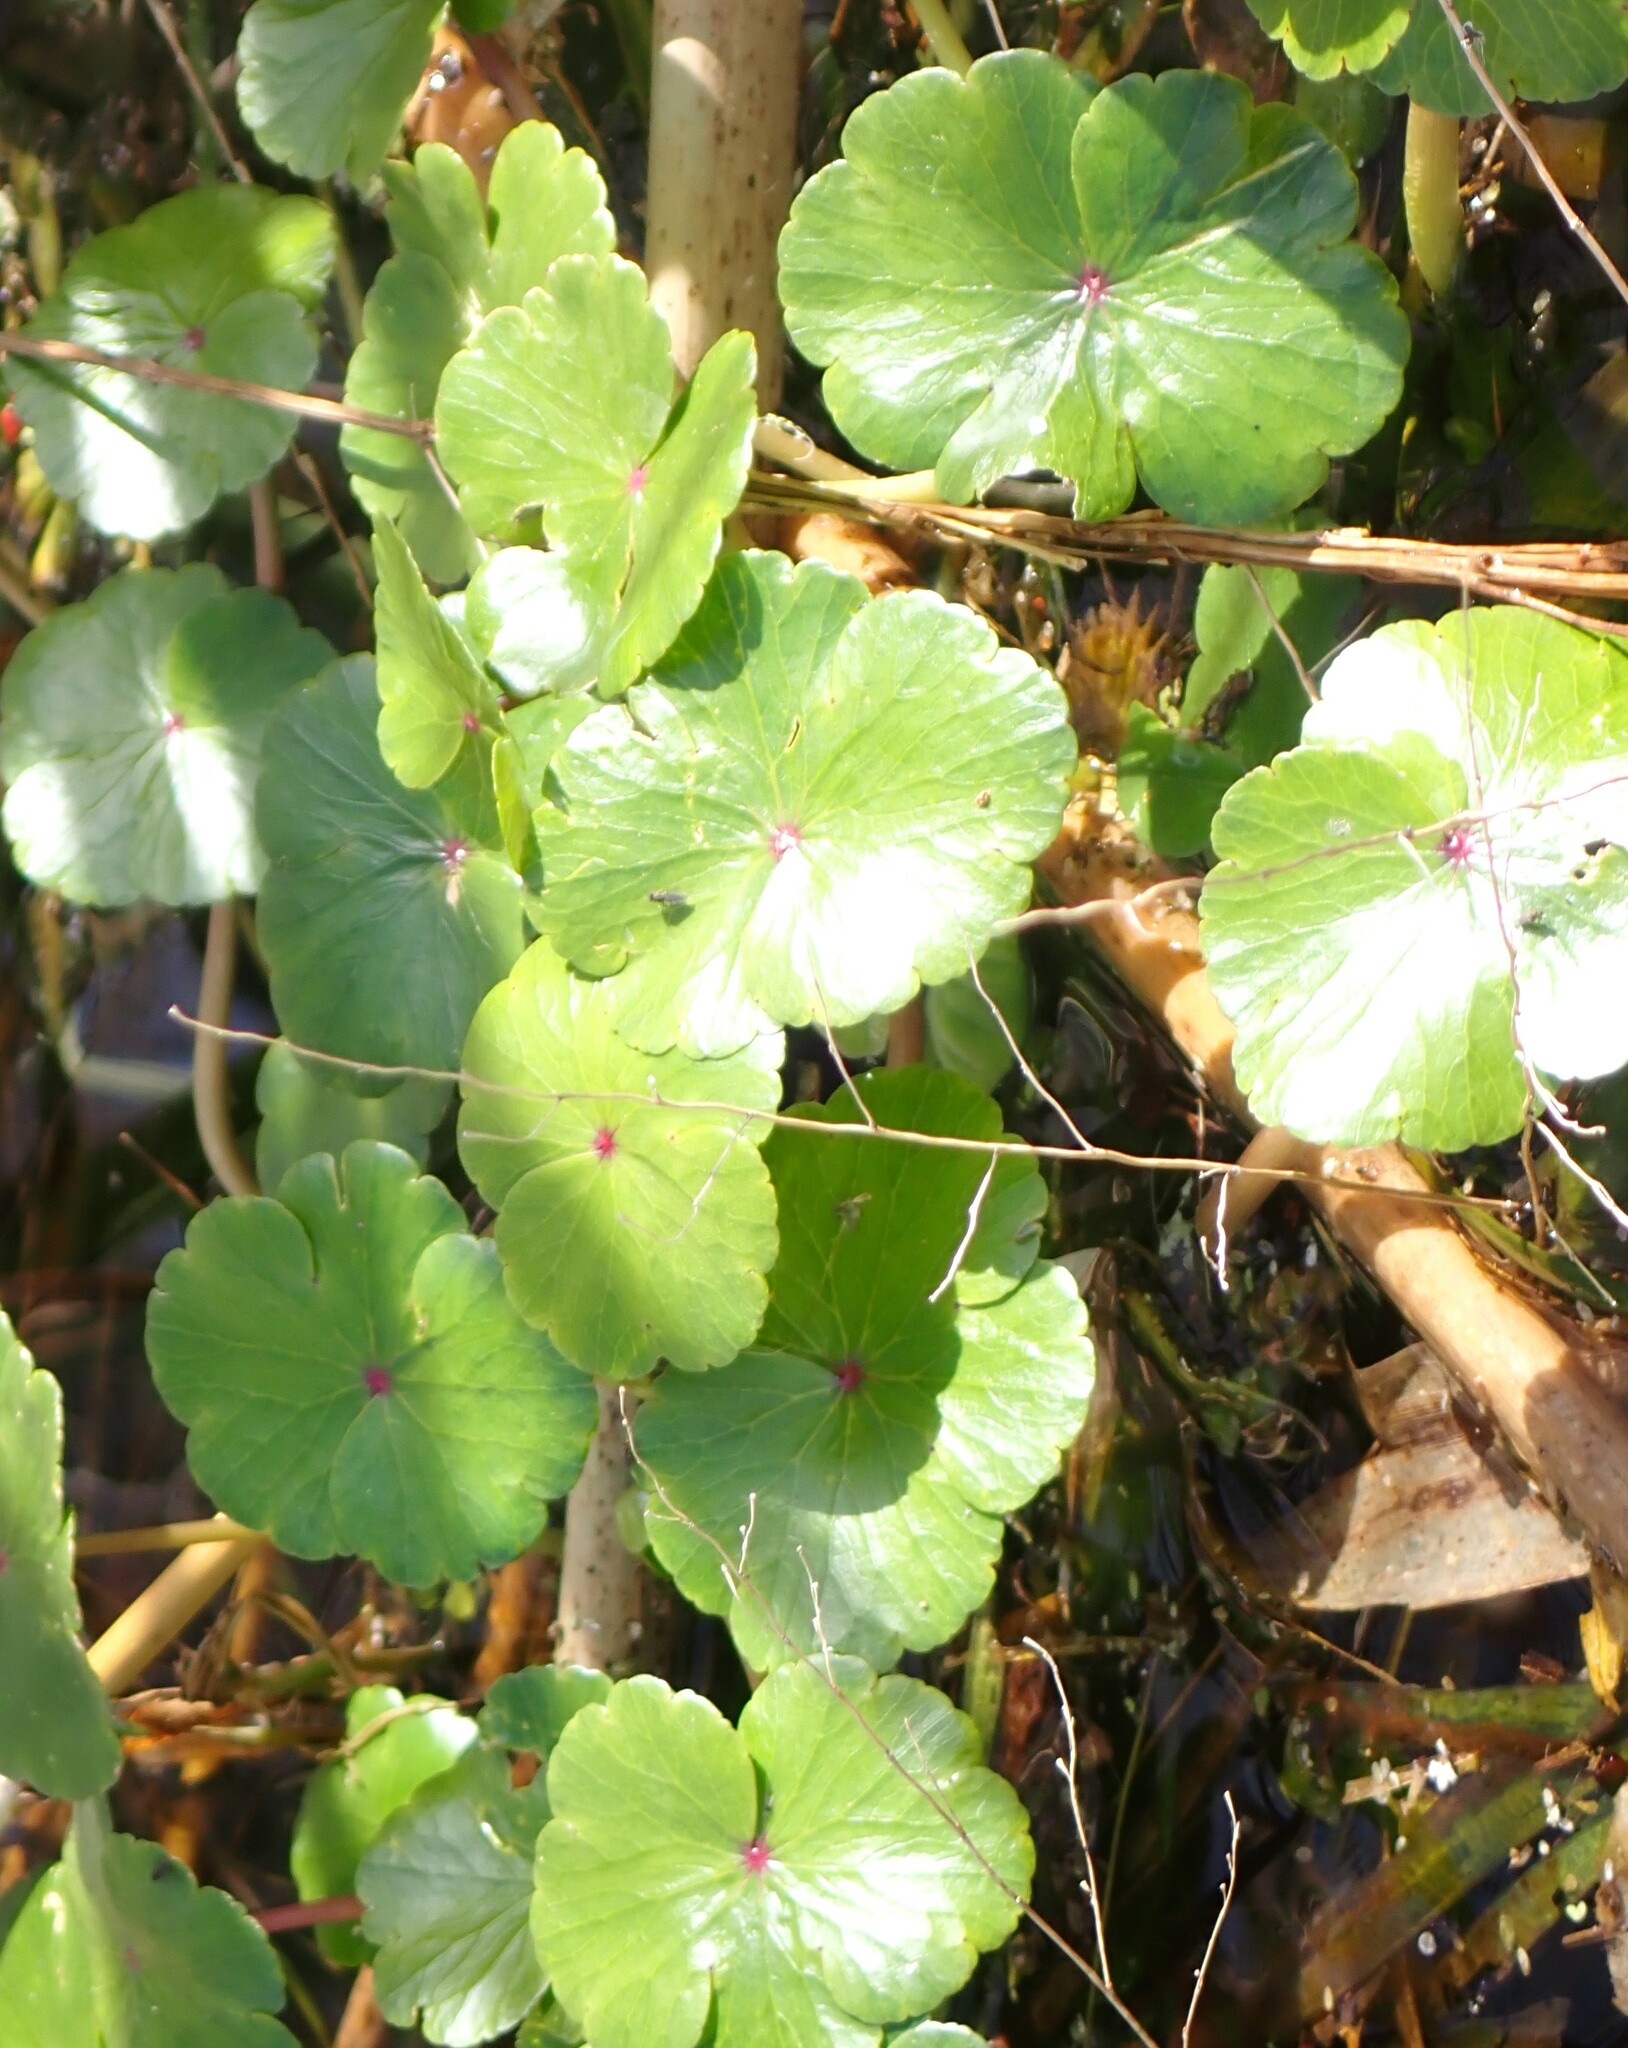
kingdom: Plantae
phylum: Tracheophyta
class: Magnoliopsida
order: Apiales
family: Araliaceae
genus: Hydrocotyle
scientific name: Hydrocotyle ranunculoides
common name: Floating pennywort
